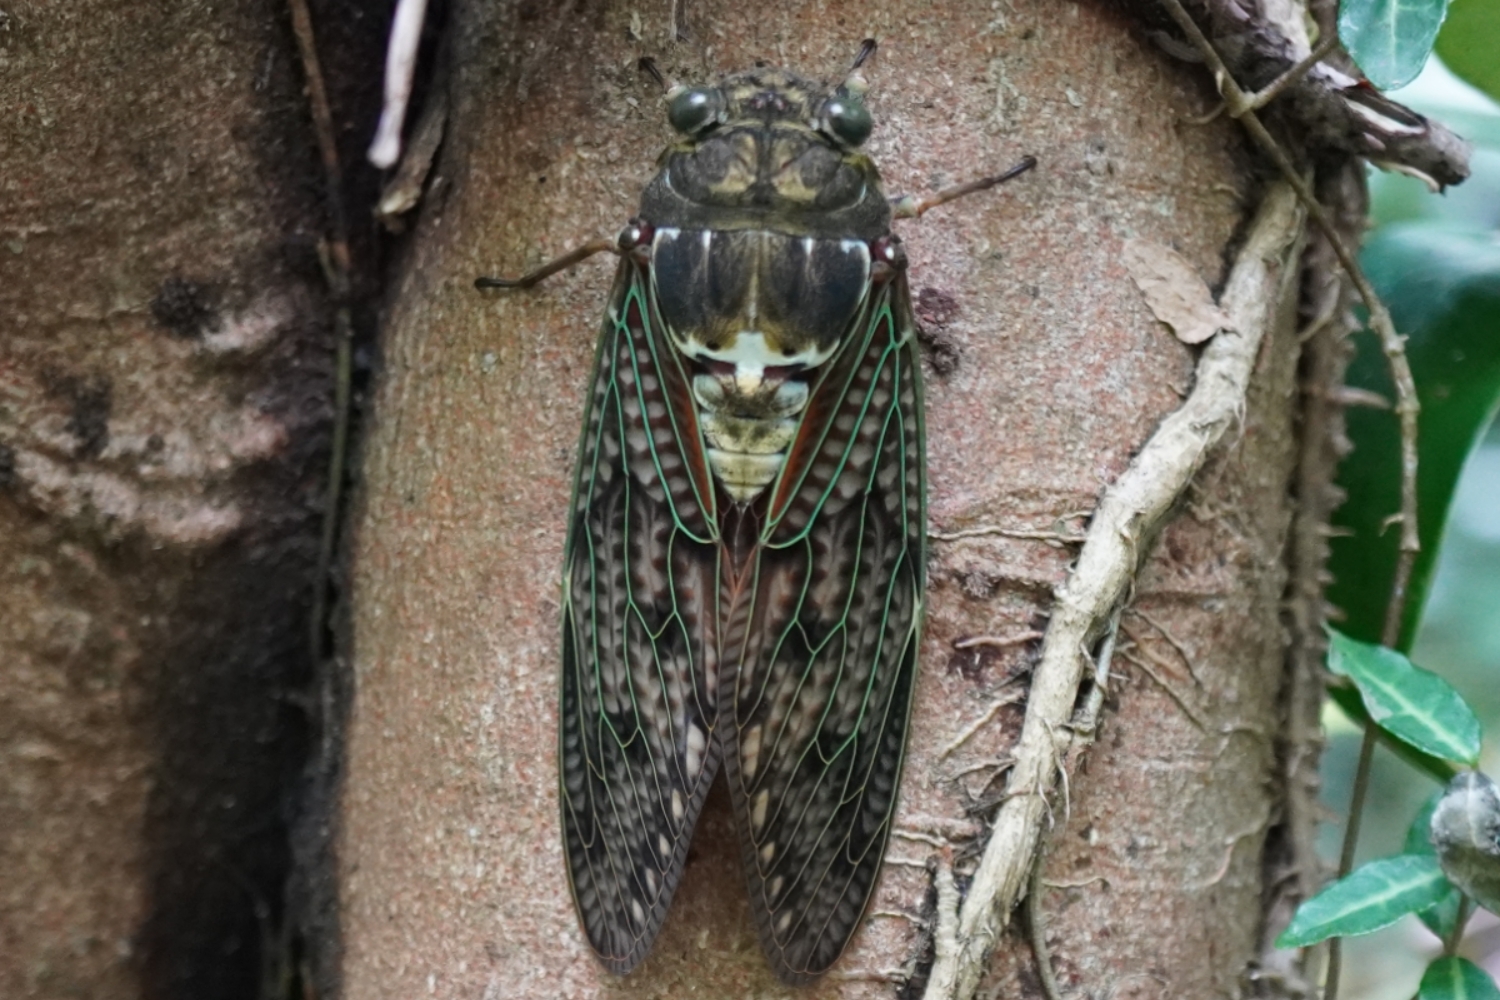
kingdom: Animalia
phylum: Arthropoda
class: Insecta
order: Hemiptera
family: Cicadidae
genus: Graptopsaltria
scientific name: Graptopsaltria nigrofuscata
